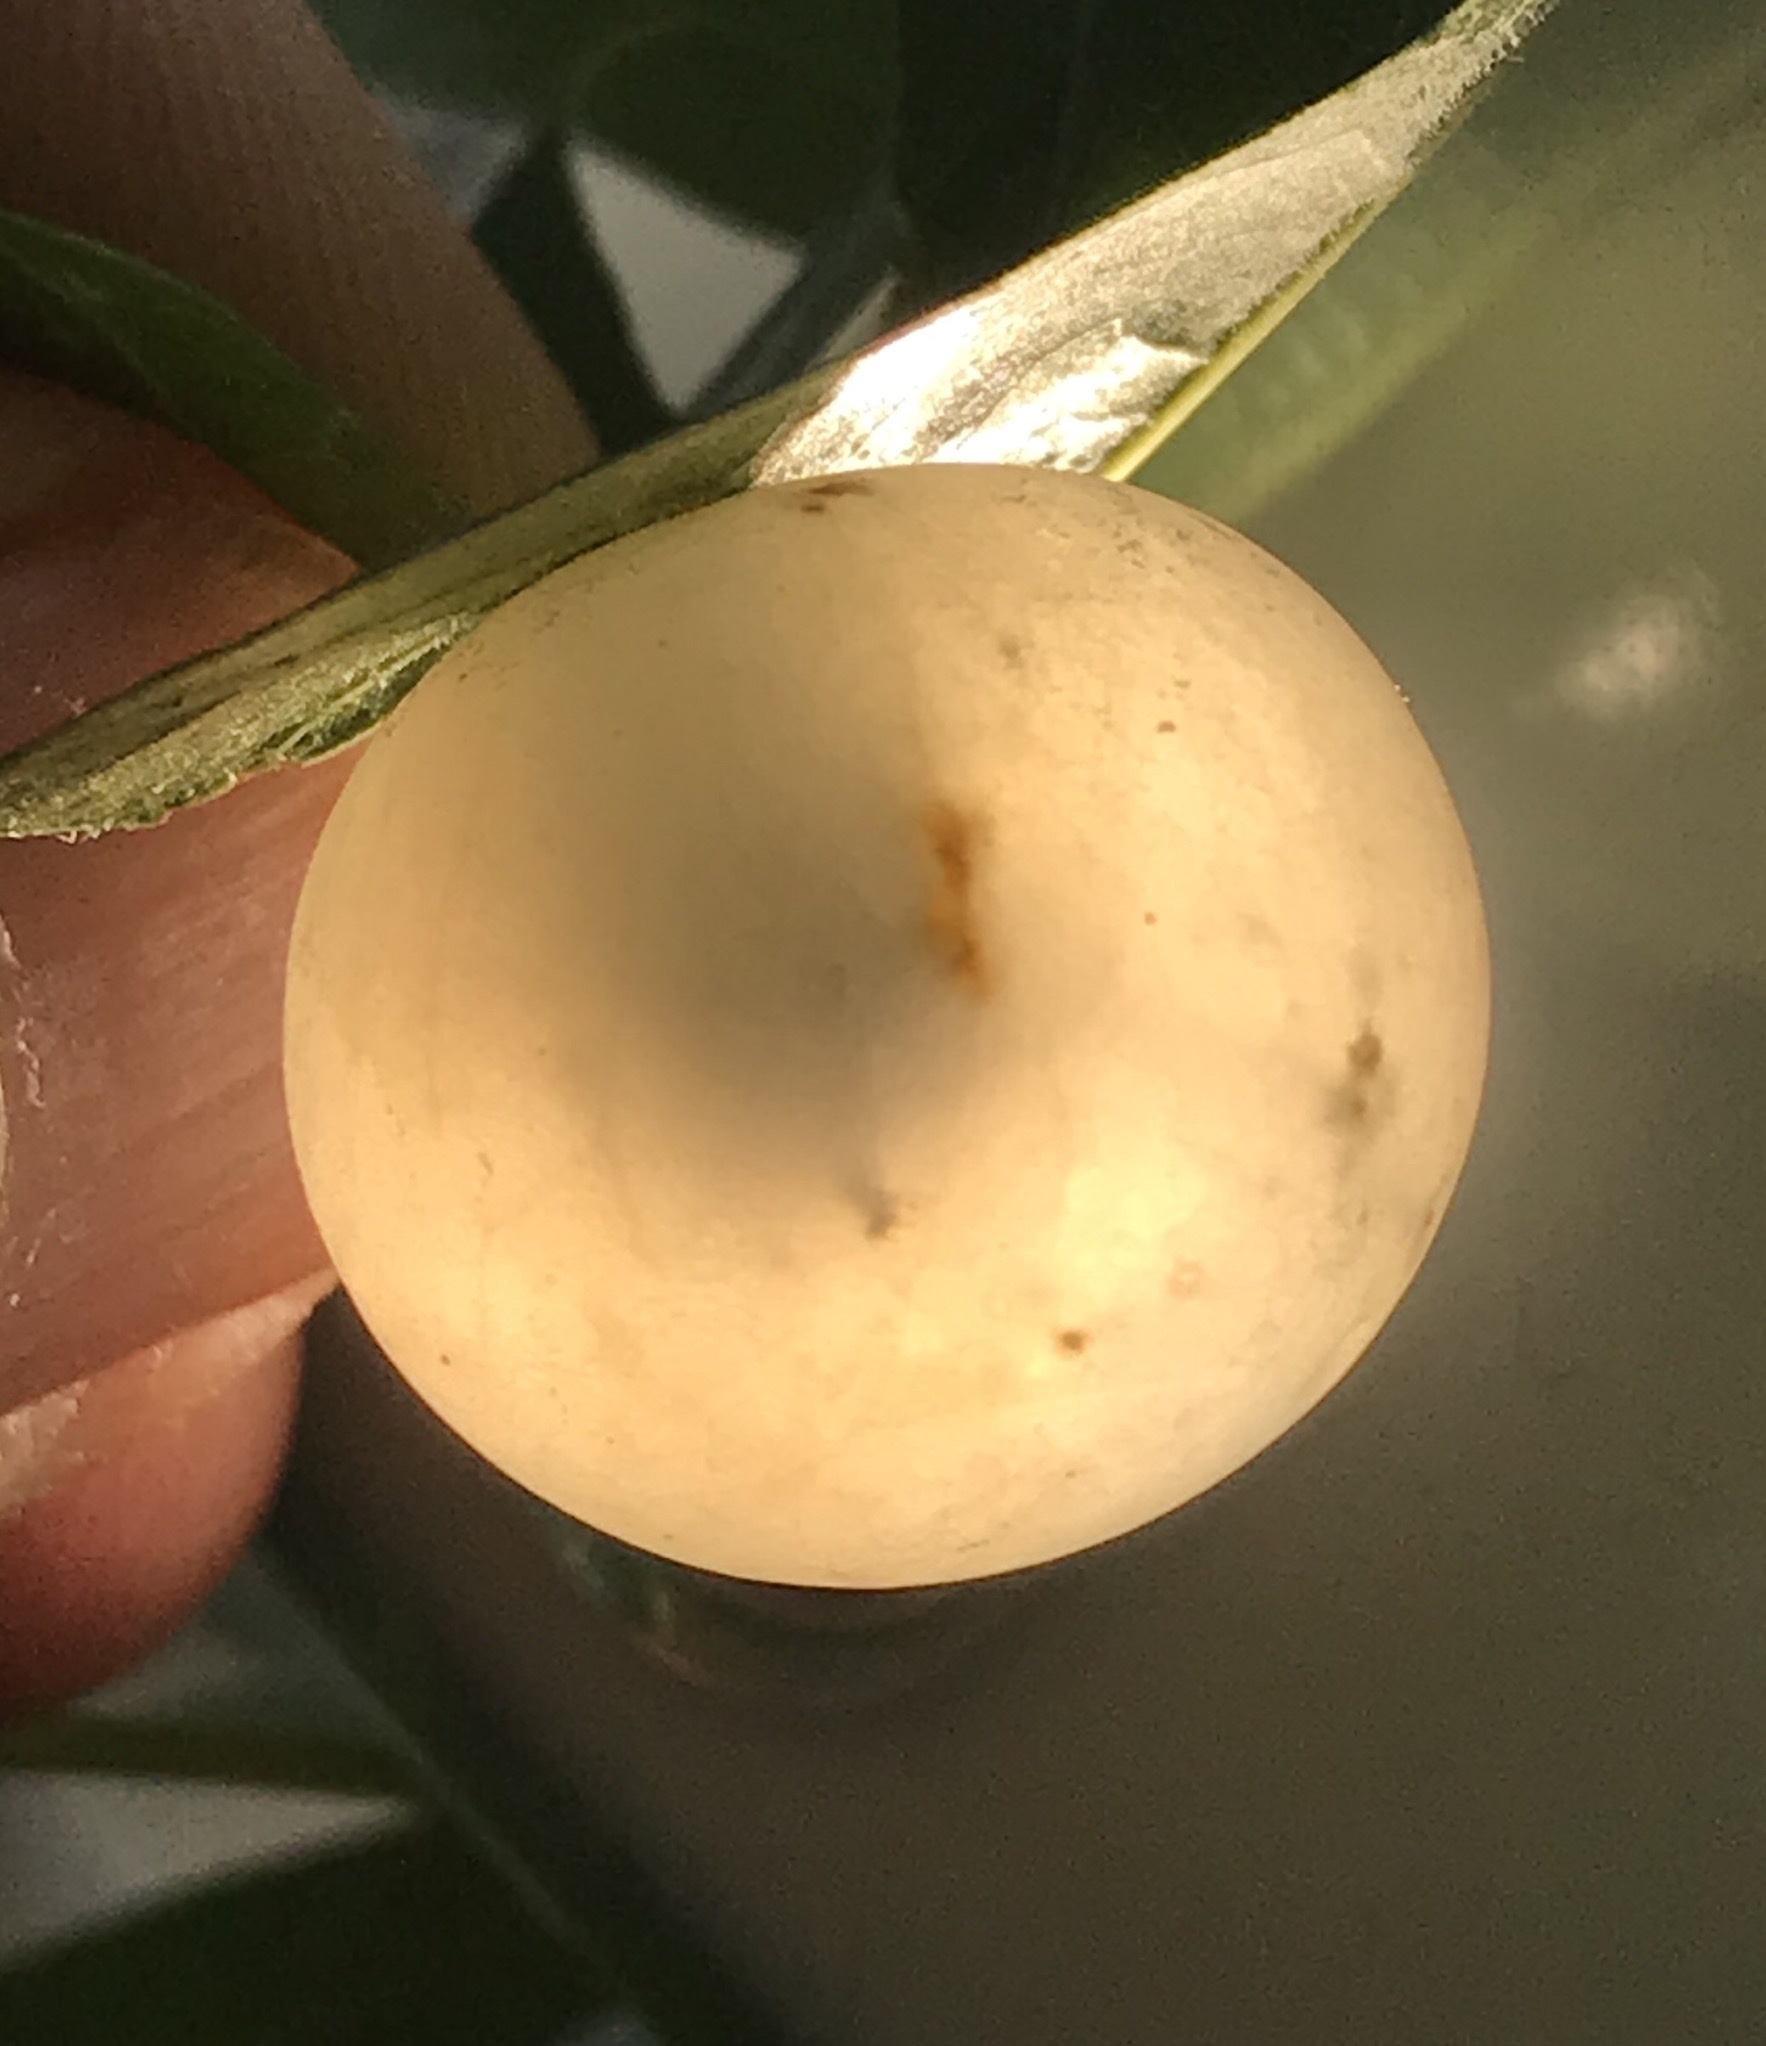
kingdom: Animalia
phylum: Arthropoda
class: Insecta
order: Hymenoptera
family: Cynipidae
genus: Amphibolips
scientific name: Amphibolips
